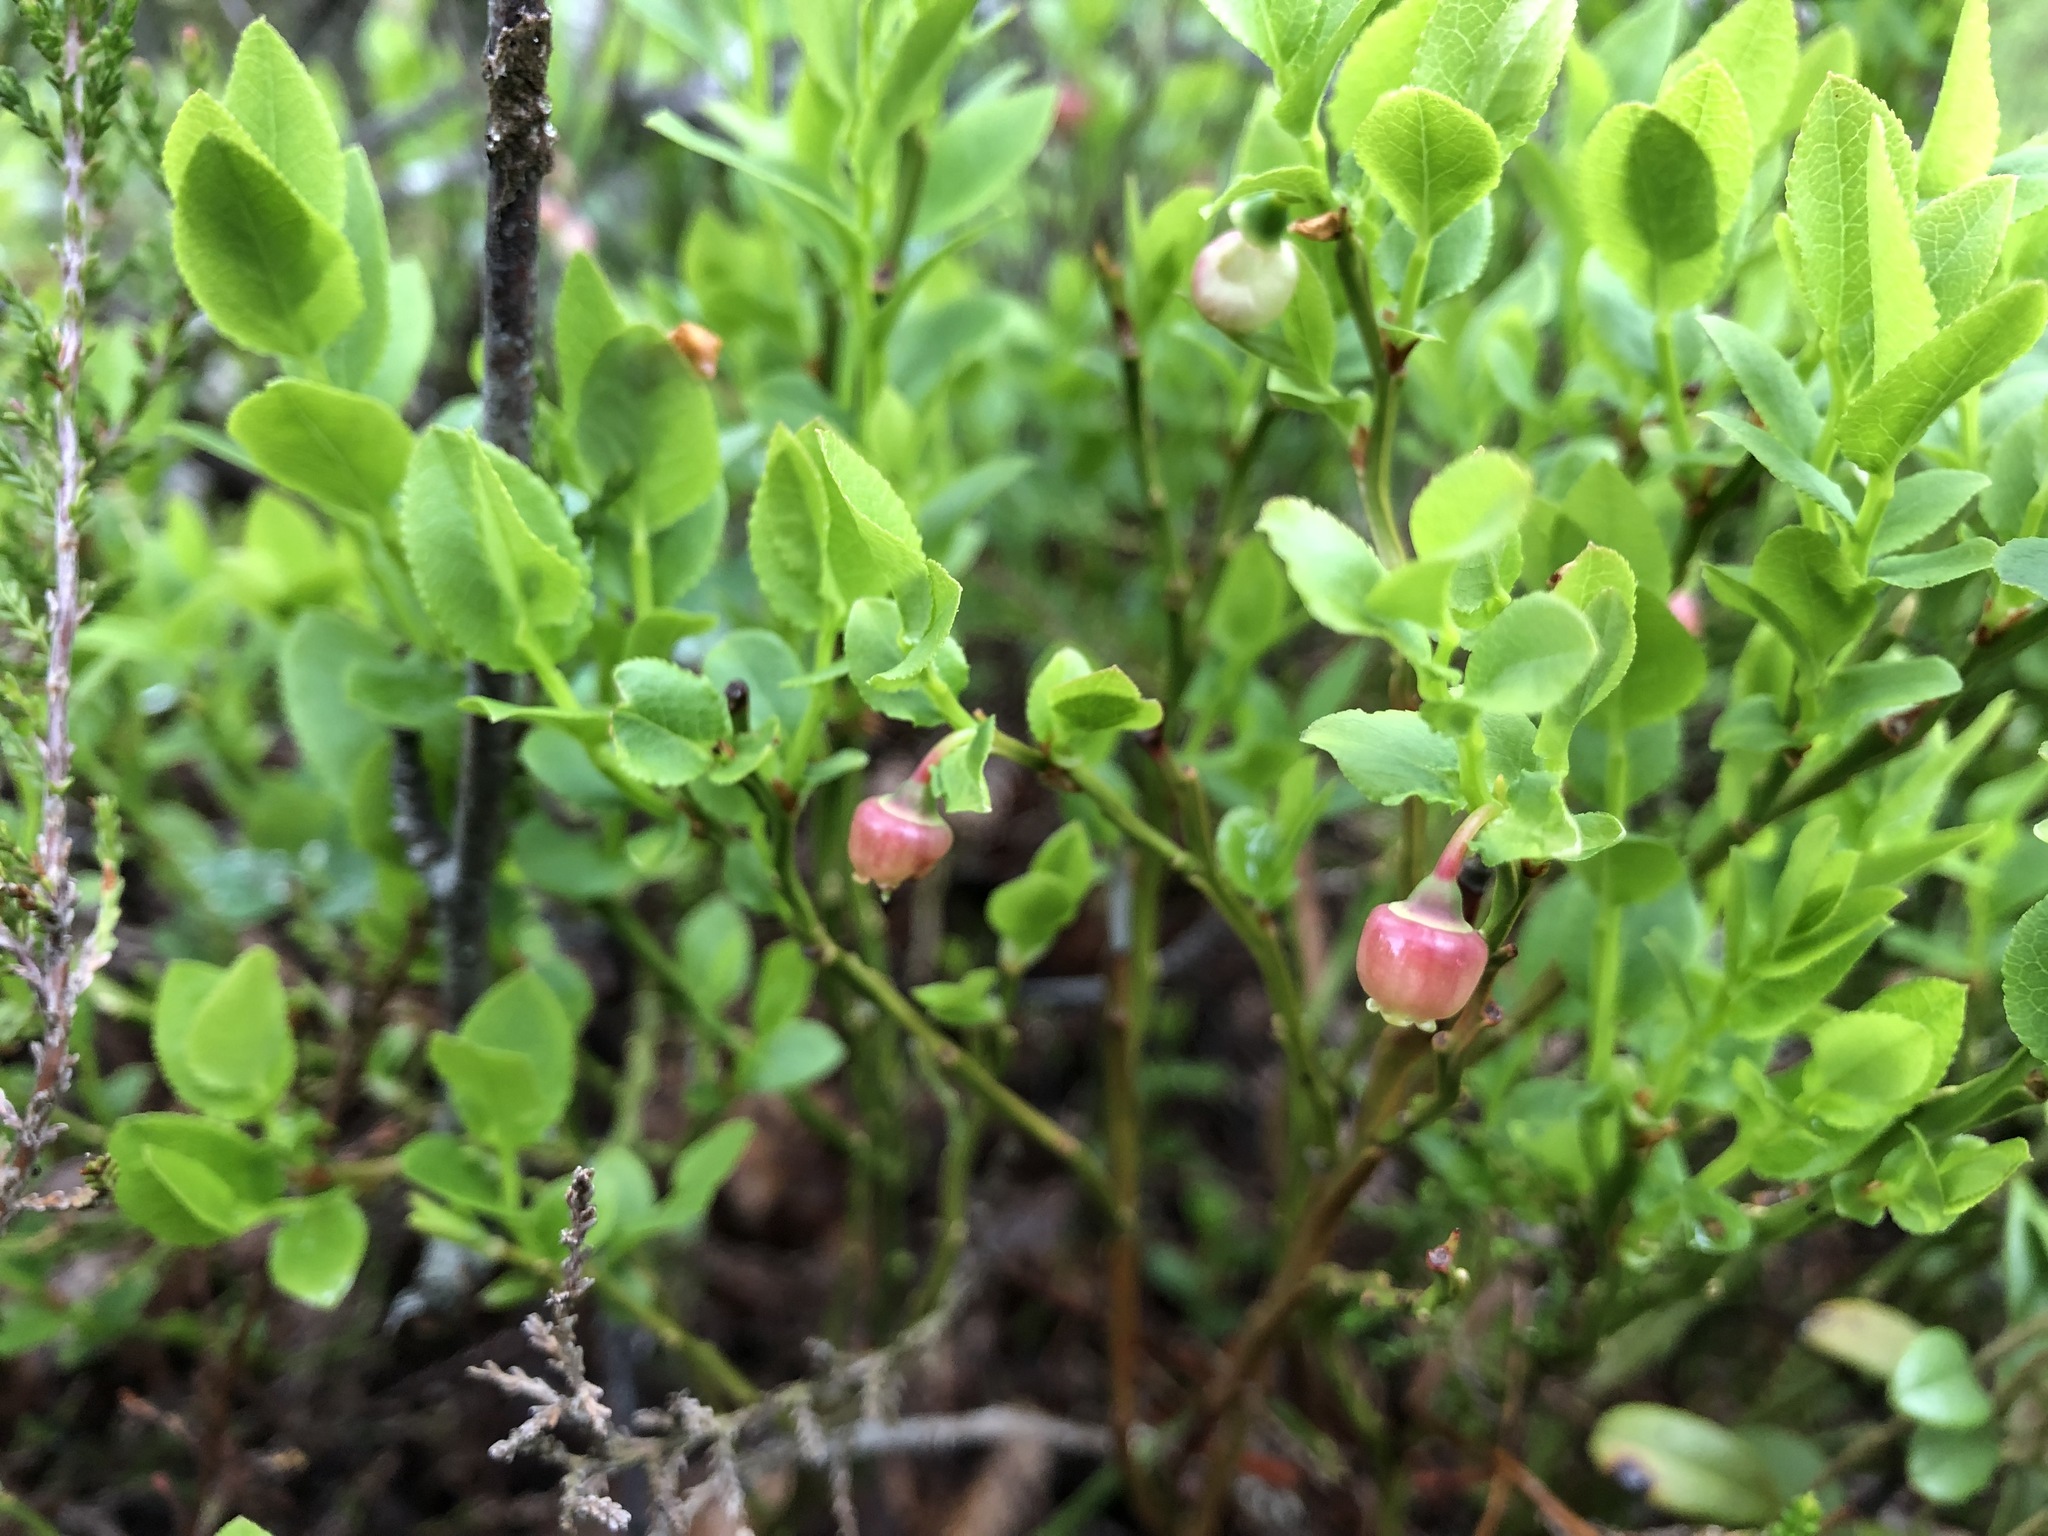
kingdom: Plantae
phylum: Tracheophyta
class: Magnoliopsida
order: Ericales
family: Ericaceae
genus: Vaccinium
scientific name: Vaccinium myrtillus
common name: Bilberry
